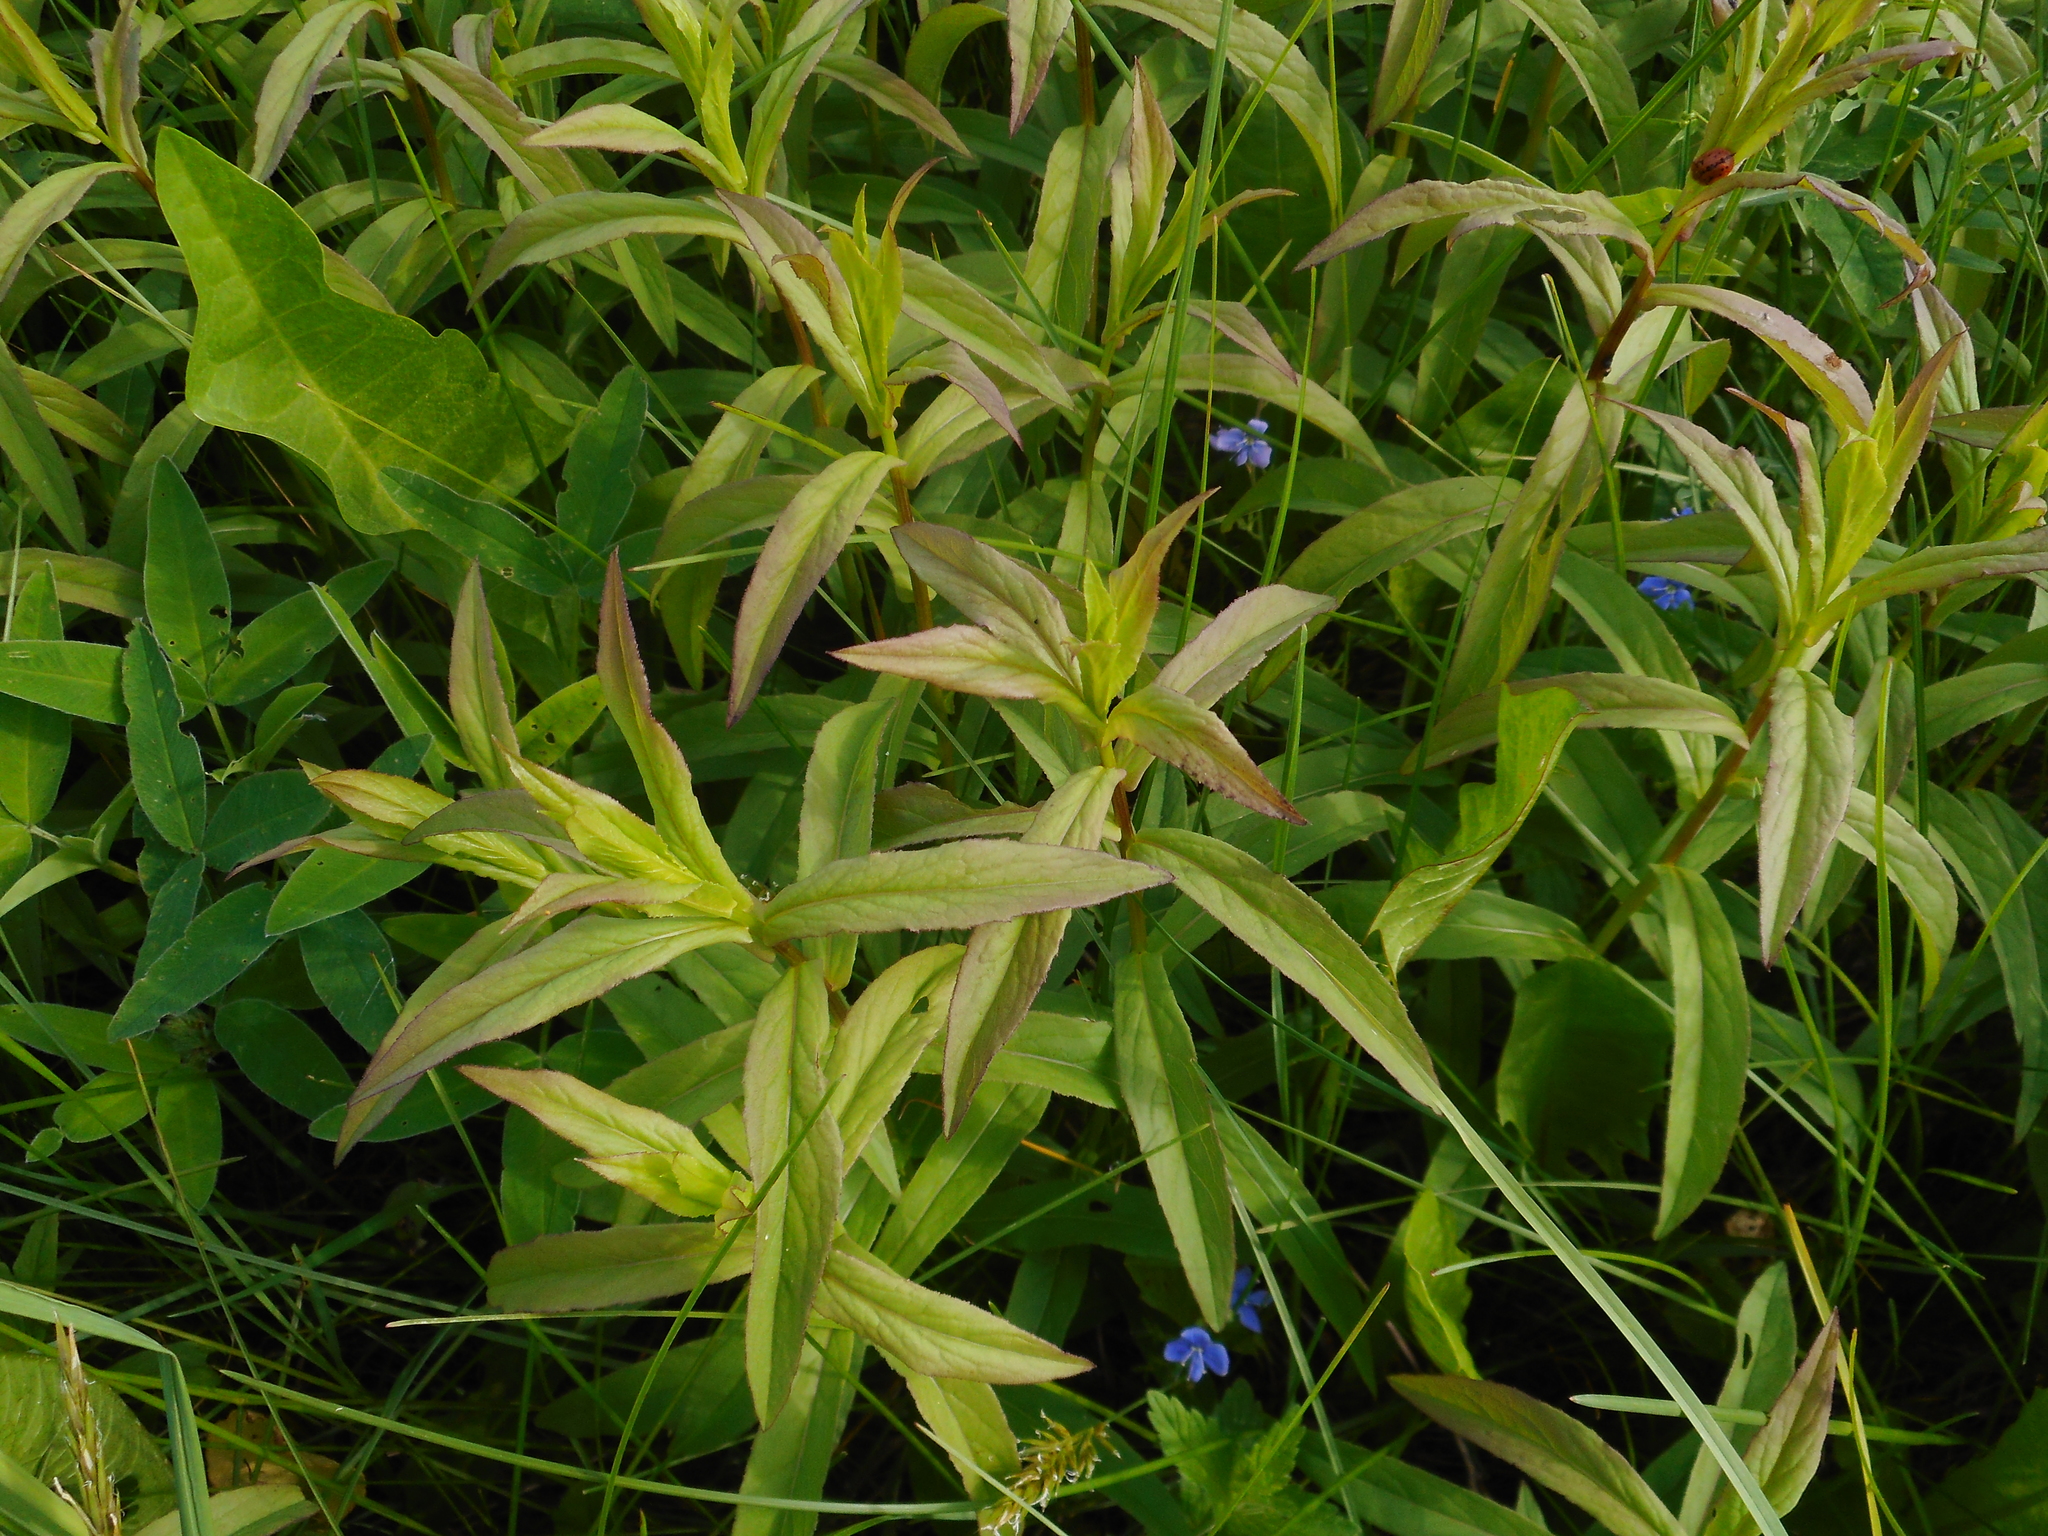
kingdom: Plantae
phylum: Tracheophyta
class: Magnoliopsida
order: Asterales
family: Asteraceae
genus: Pentanema
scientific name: Pentanema salicinum
